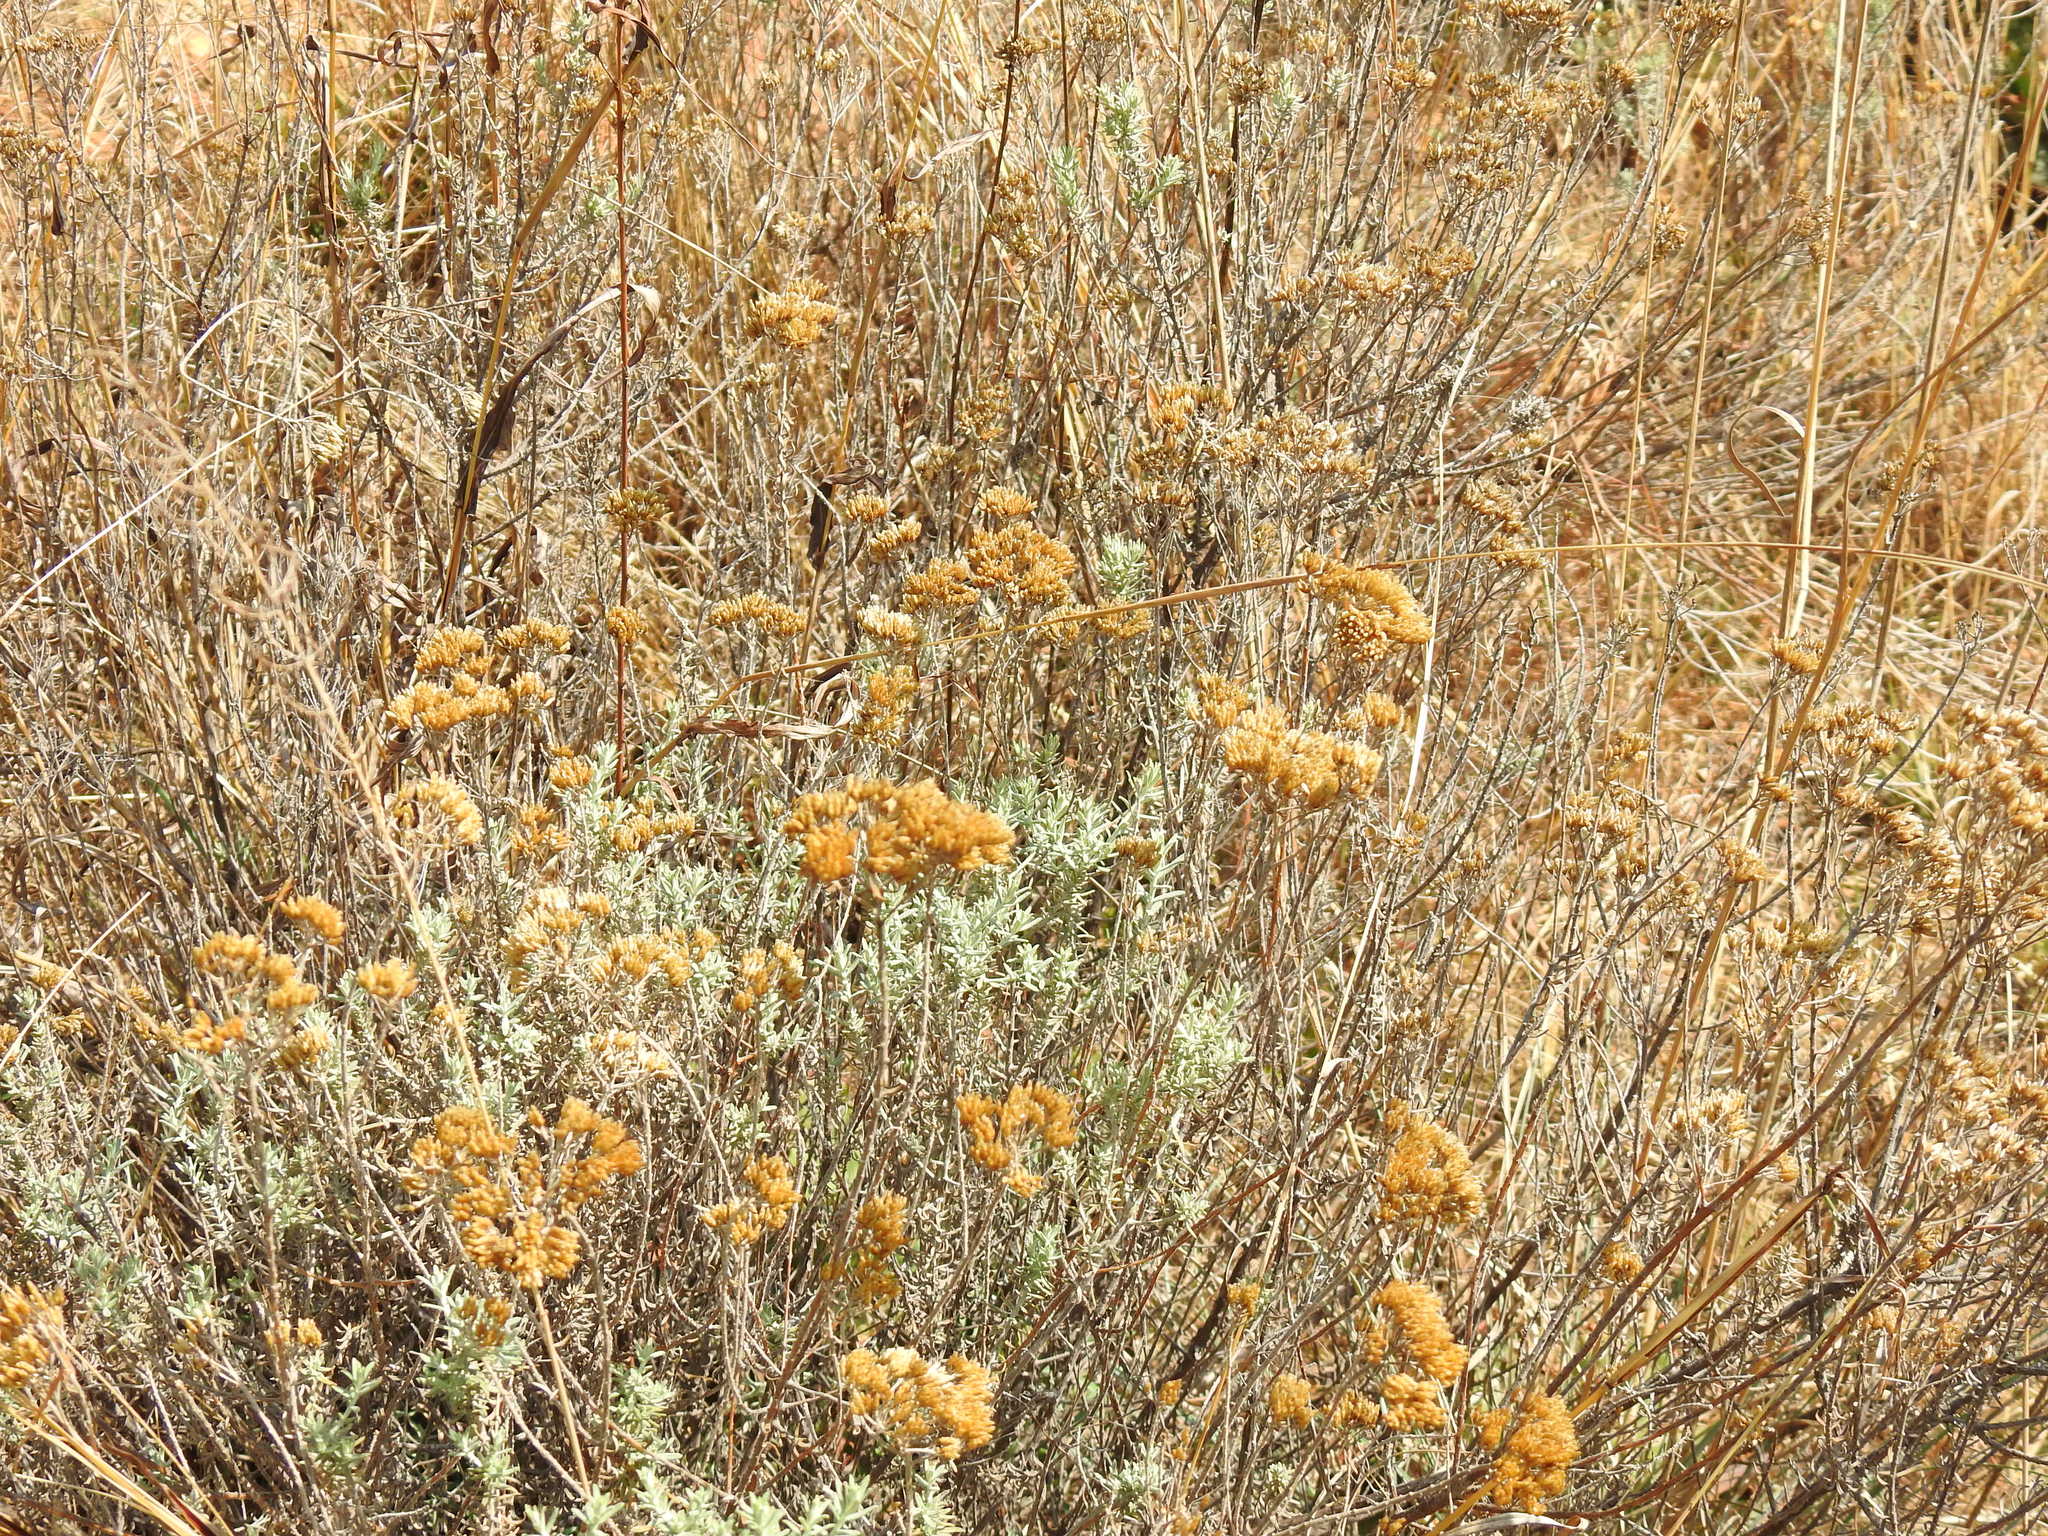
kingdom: Plantae
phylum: Tracheophyta
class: Magnoliopsida
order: Asterales
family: Asteraceae
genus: Helichrysum
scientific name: Helichrysum kraussii
